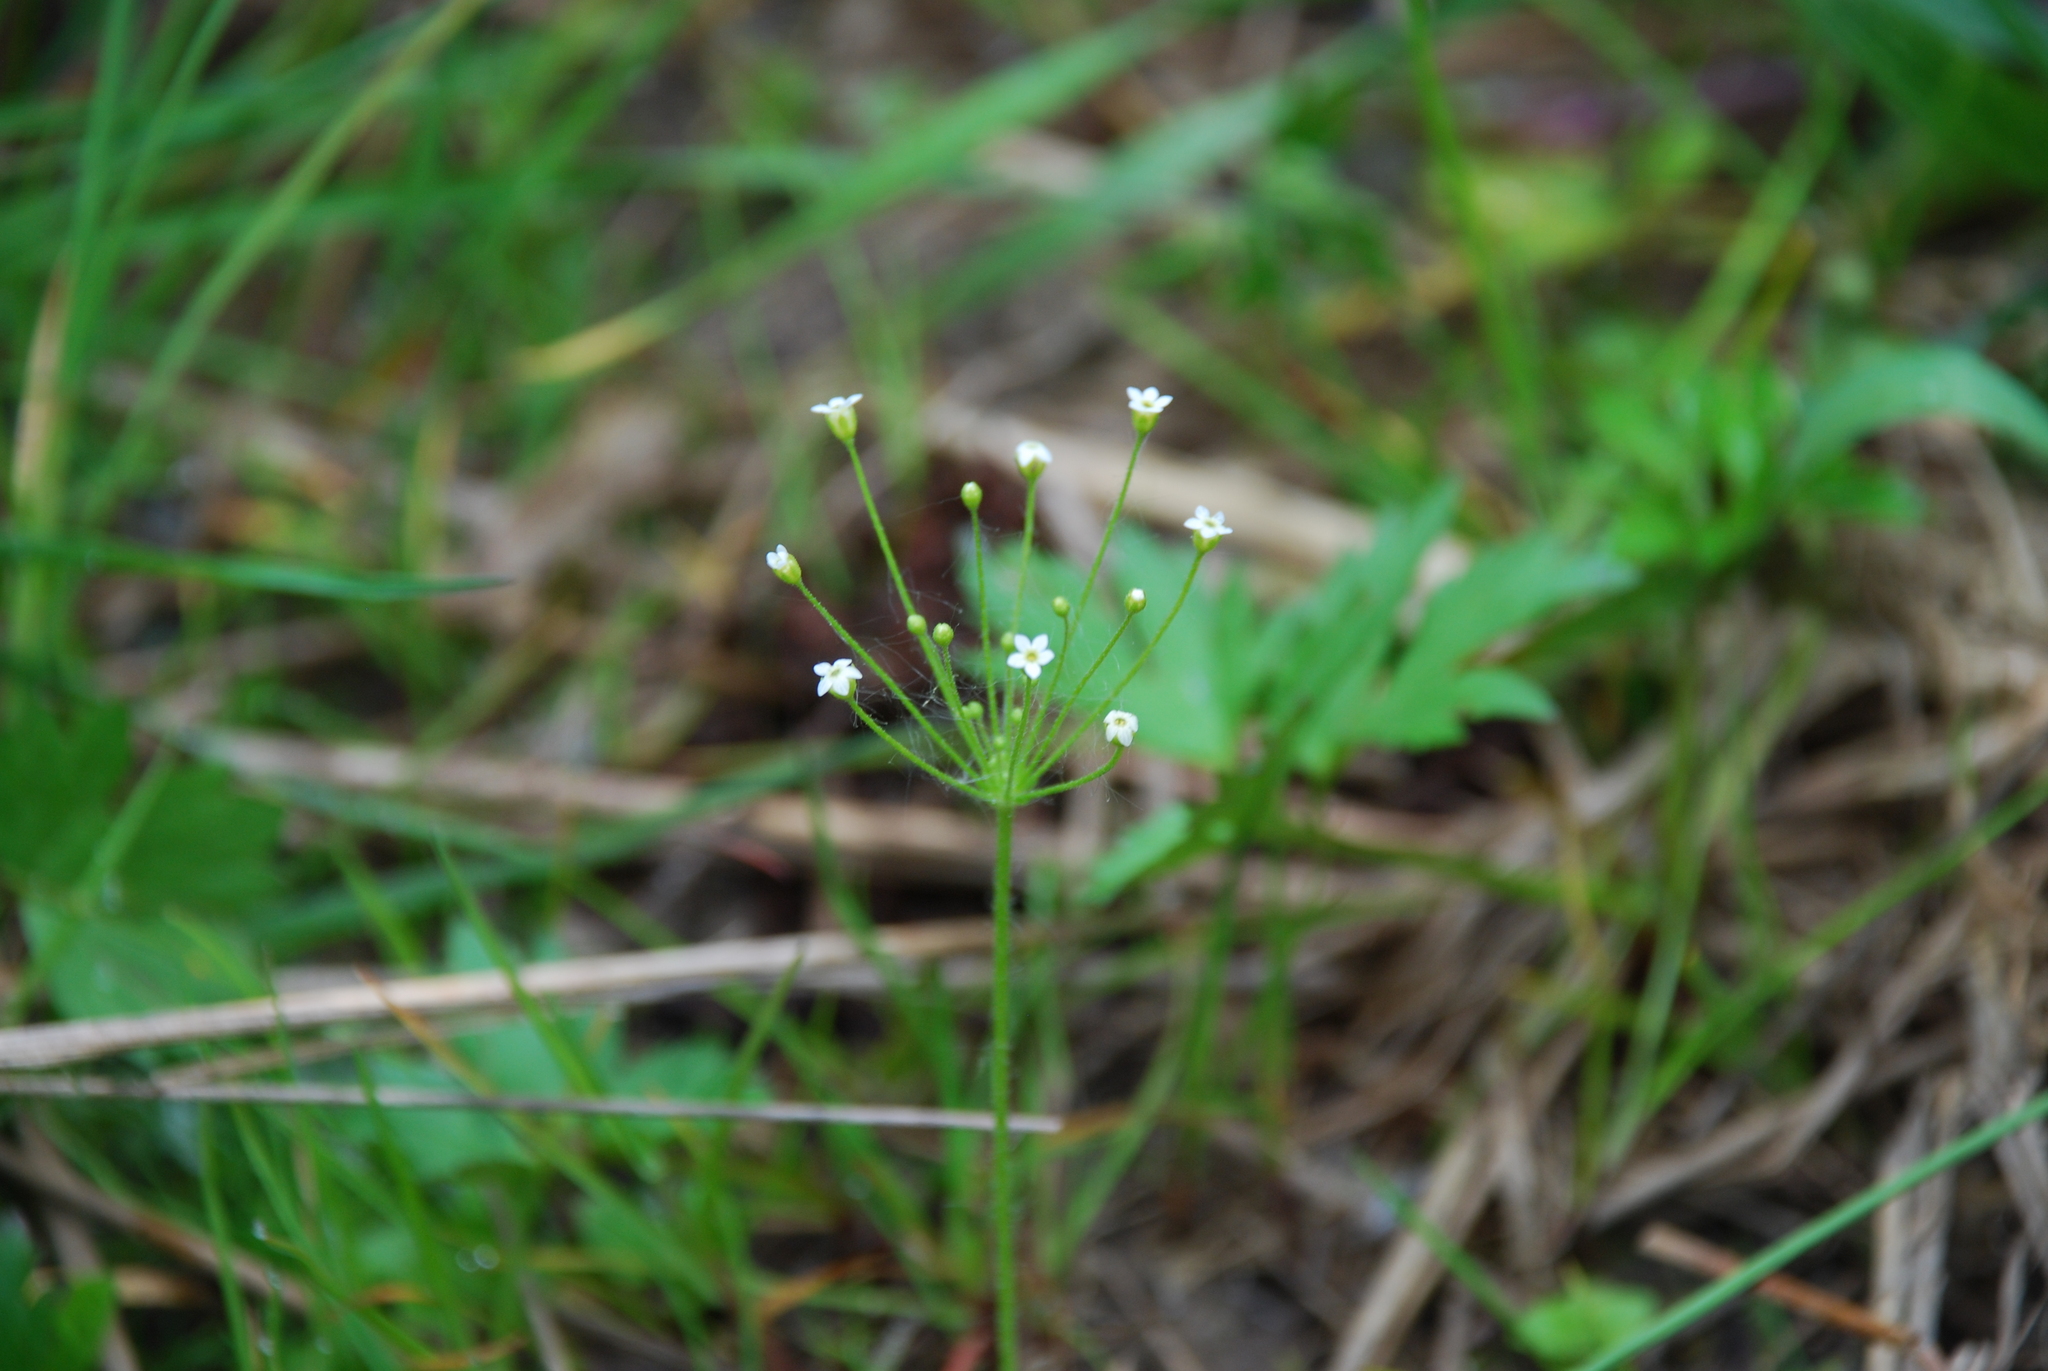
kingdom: Plantae
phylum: Tracheophyta
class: Magnoliopsida
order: Ericales
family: Primulaceae
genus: Androsace
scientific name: Androsace filiformis
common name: Filiform rock jasmine
